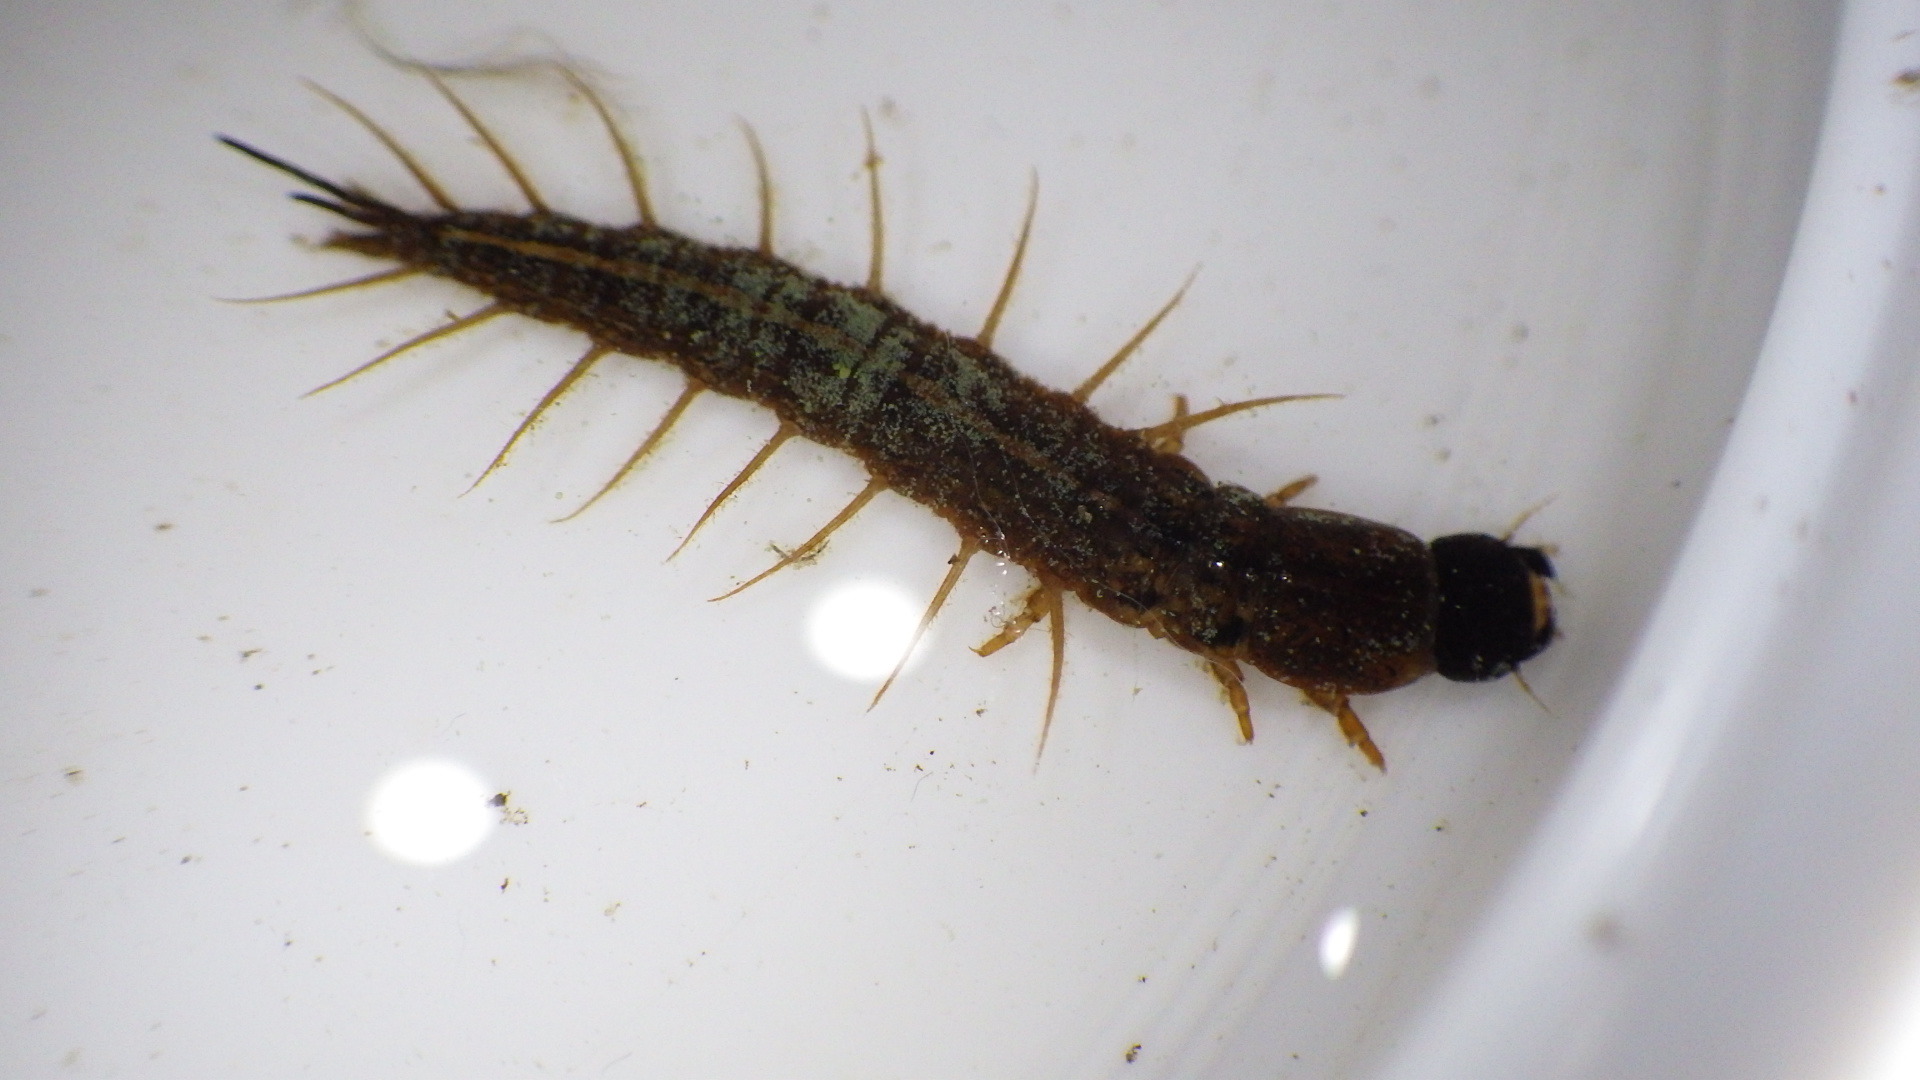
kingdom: Animalia
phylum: Arthropoda
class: Insecta
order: Megaloptera
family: Corydalidae
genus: Chauliodes
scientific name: Chauliodes pectinicornis
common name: Summer fishfly
